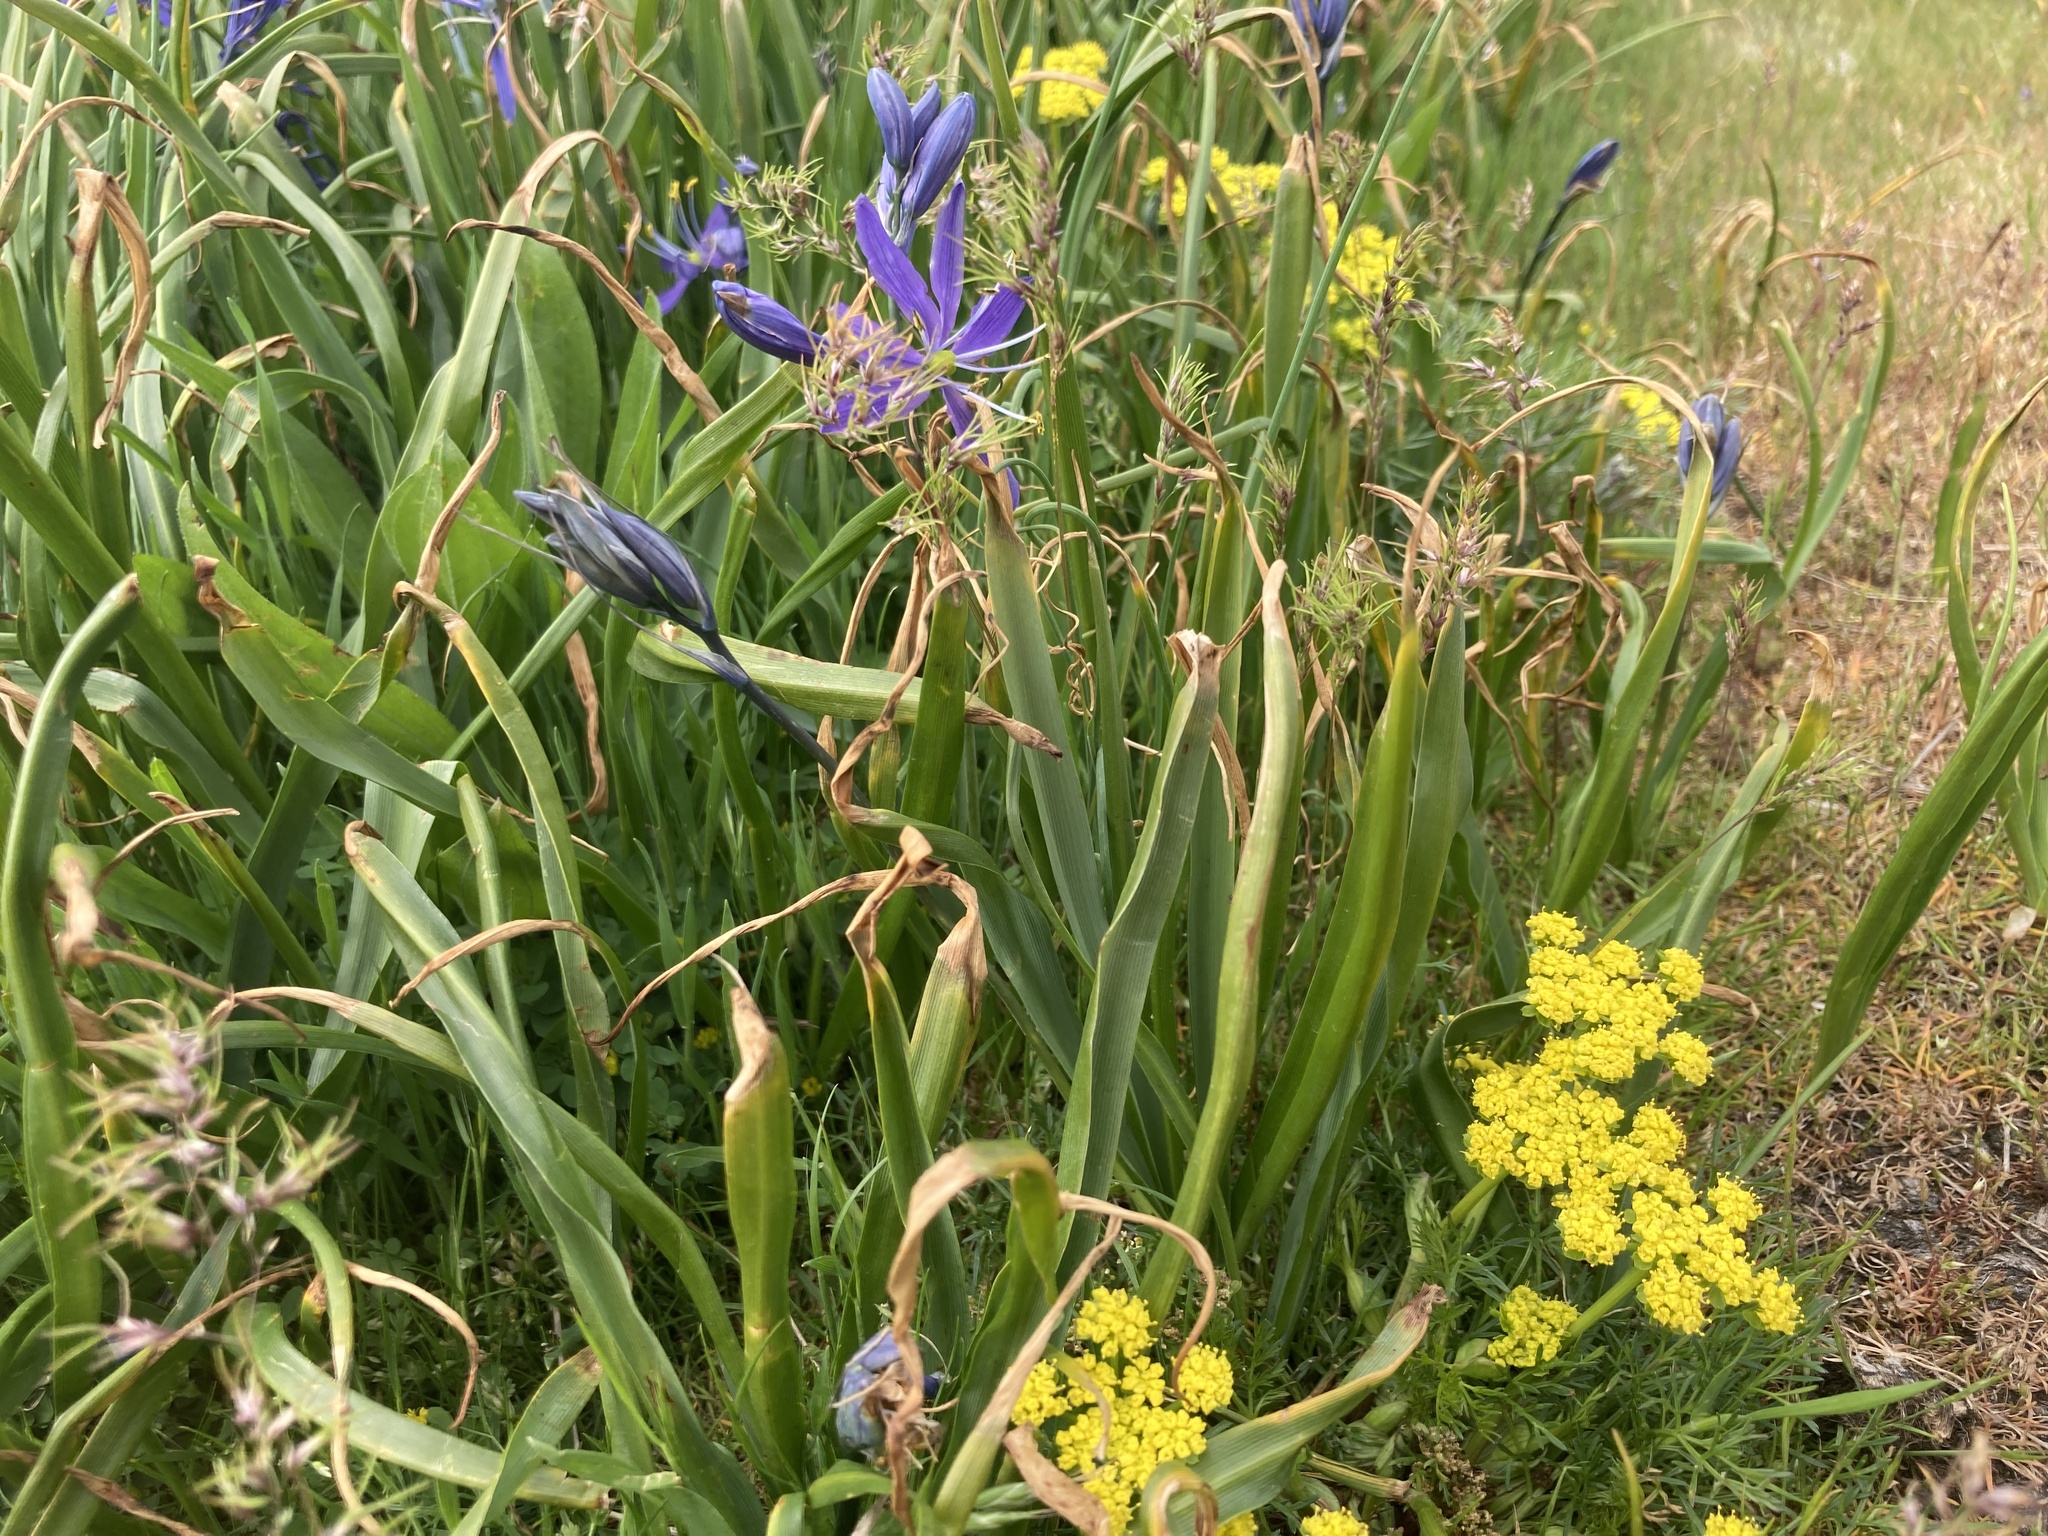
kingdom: Plantae
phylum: Tracheophyta
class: Magnoliopsida
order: Apiales
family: Apiaceae
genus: Lomatium
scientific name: Lomatium utriculatum
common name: Fine-leaf desert-parsley
